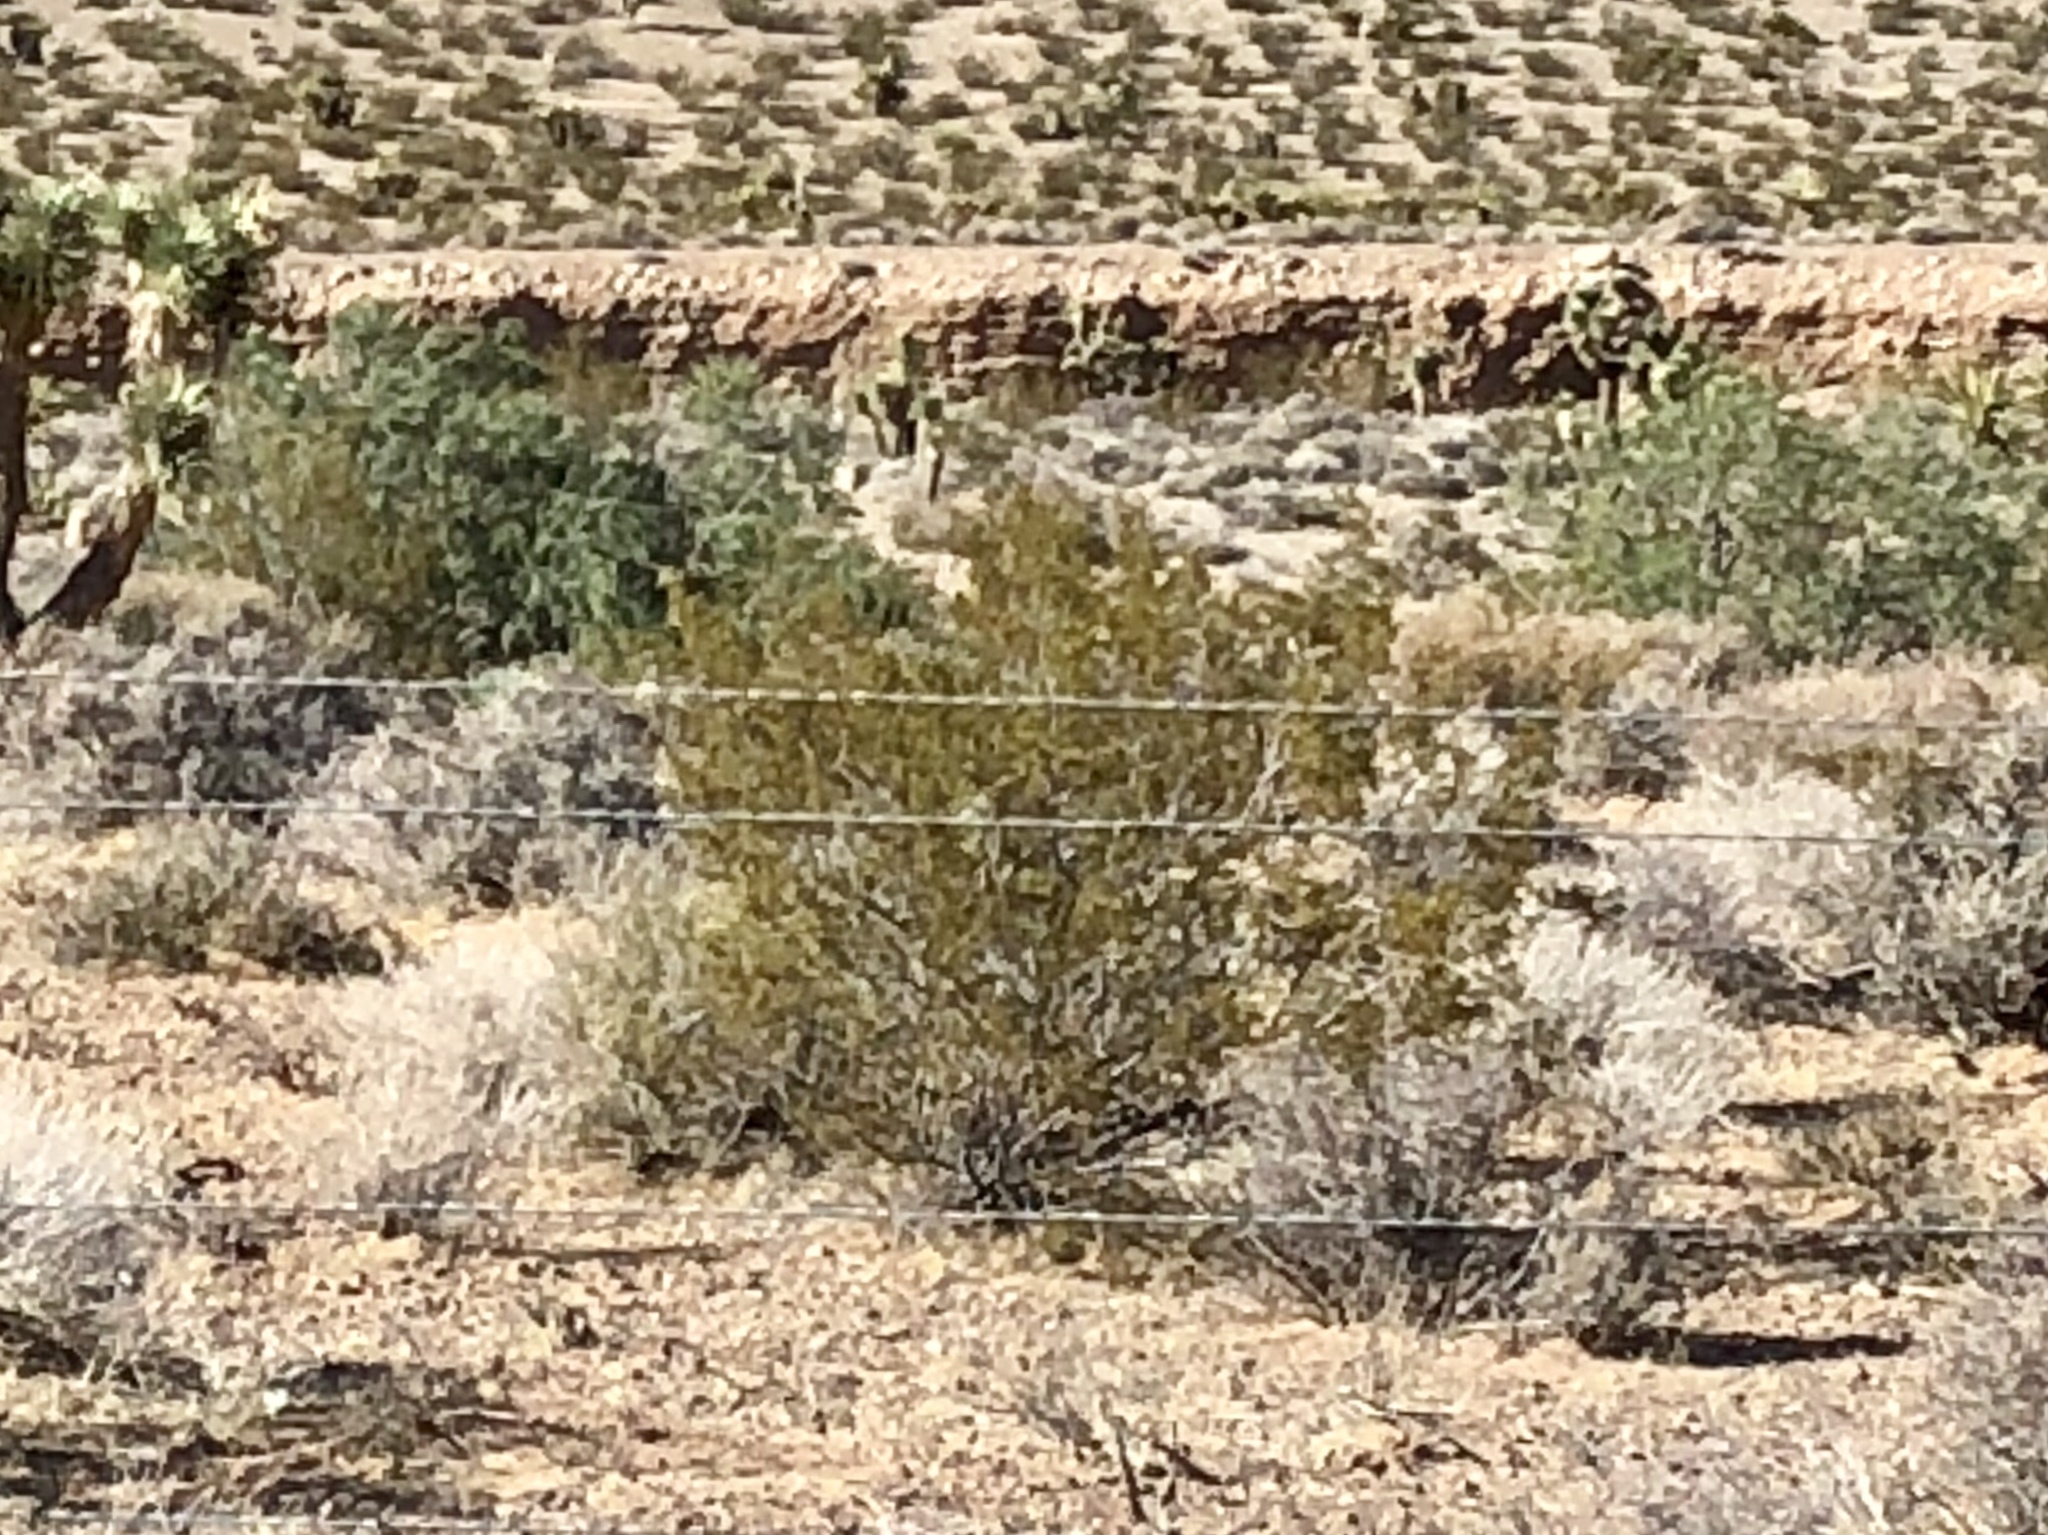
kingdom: Plantae
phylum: Tracheophyta
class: Magnoliopsida
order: Zygophyllales
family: Zygophyllaceae
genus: Larrea
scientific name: Larrea tridentata
